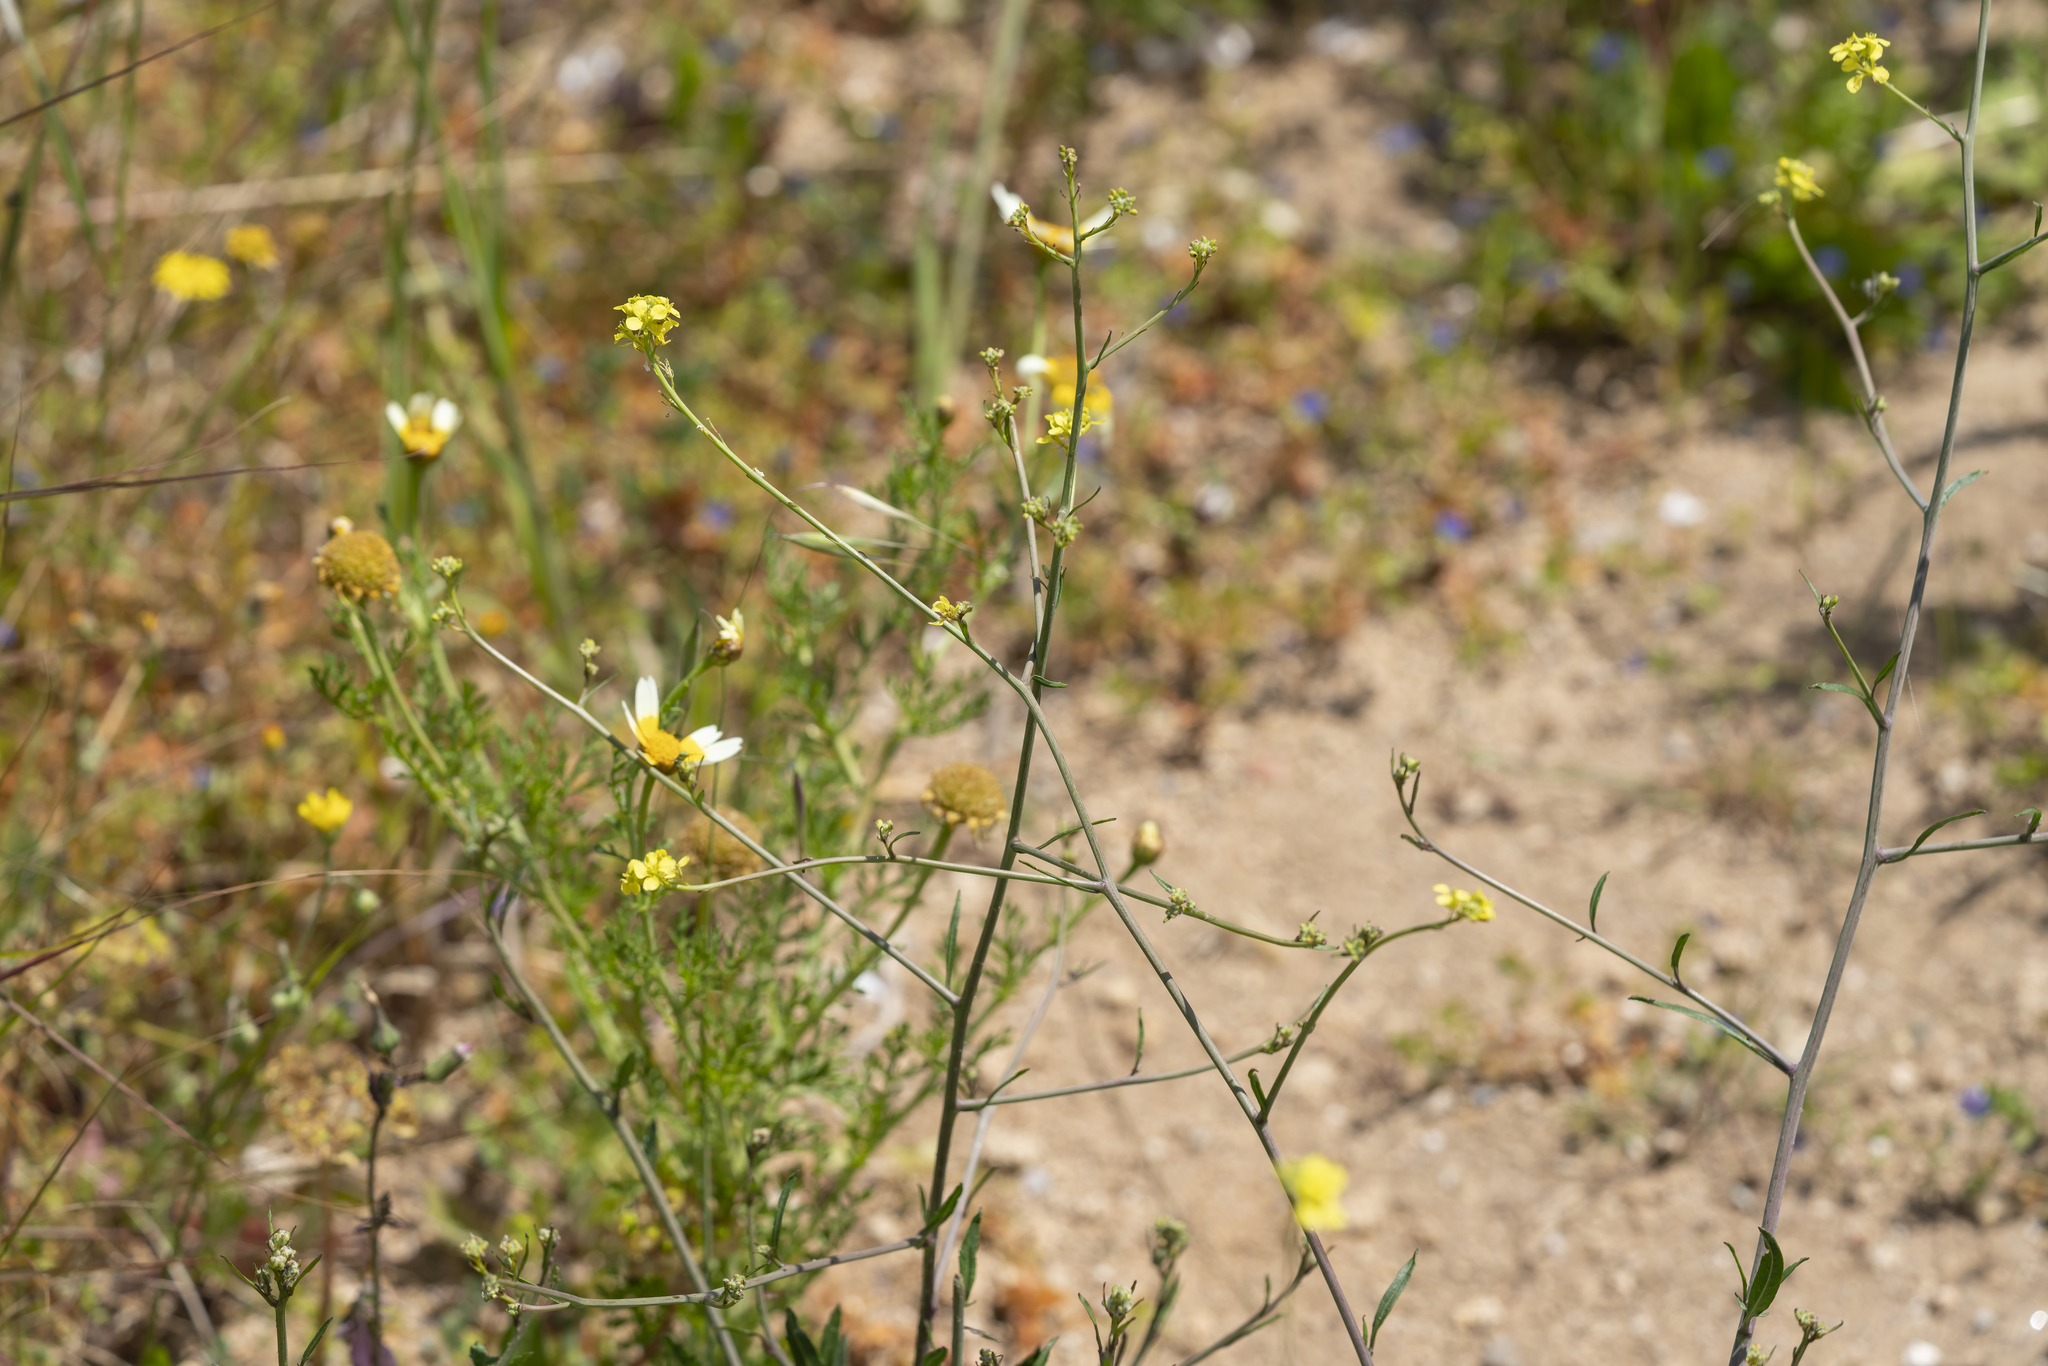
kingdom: Plantae
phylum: Tracheophyta
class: Magnoliopsida
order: Brassicales
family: Brassicaceae
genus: Hirschfeldia
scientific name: Hirschfeldia incana
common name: Hoary mustard
